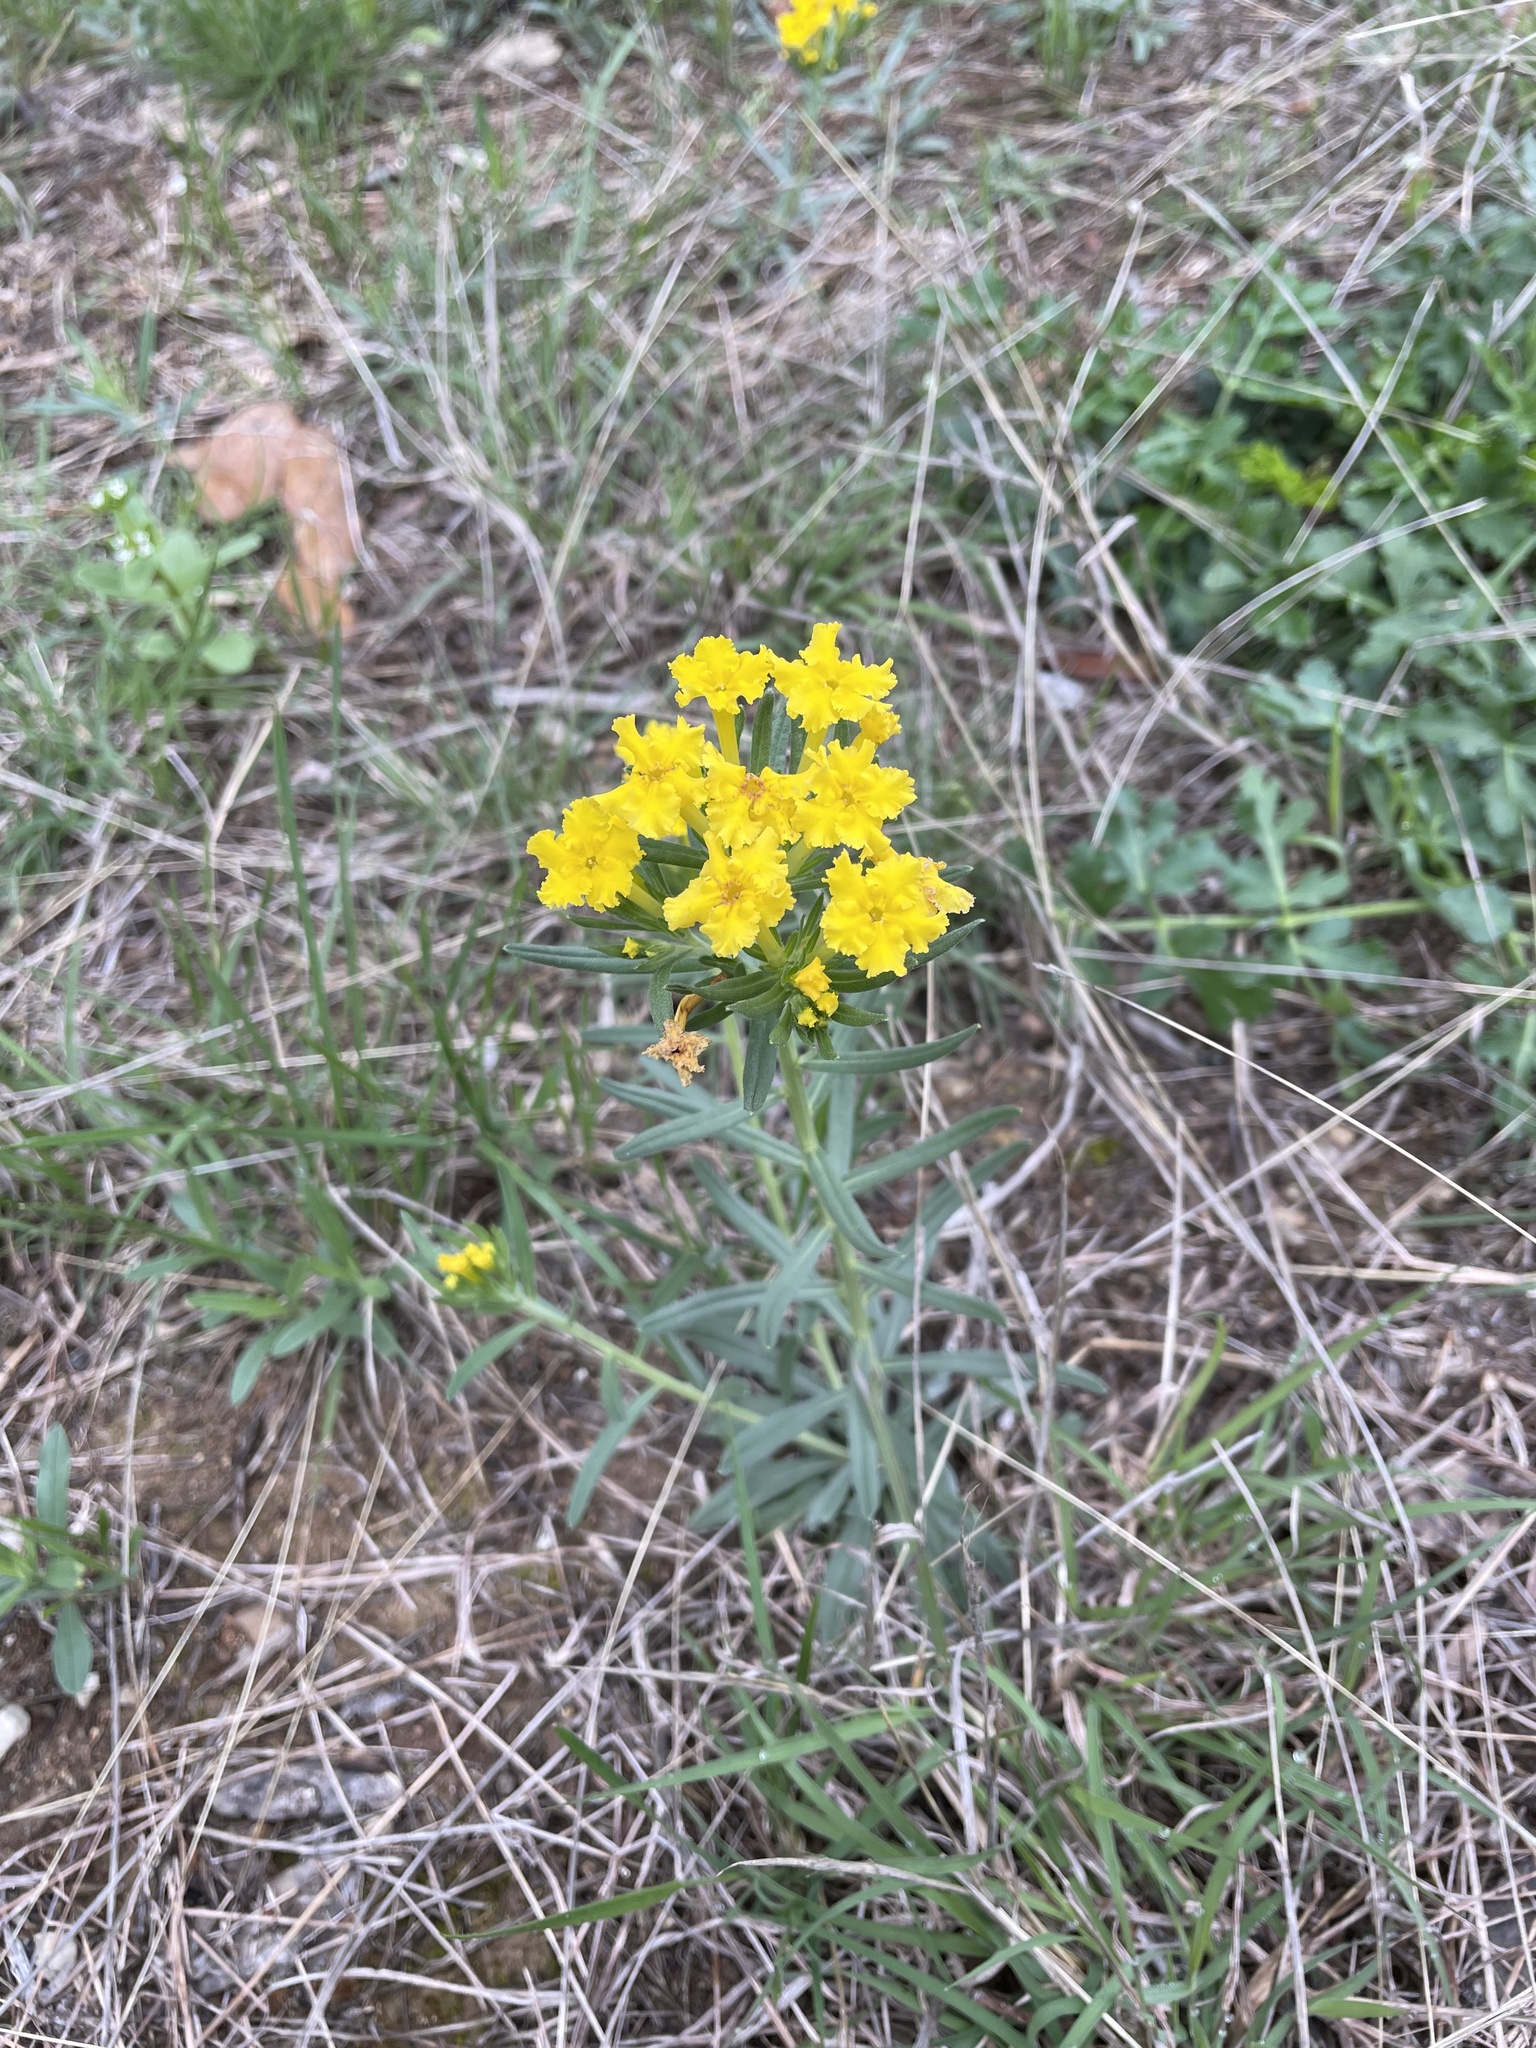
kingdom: Plantae
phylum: Tracheophyta
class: Magnoliopsida
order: Boraginales
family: Boraginaceae
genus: Lithospermum
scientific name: Lithospermum incisum
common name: Fringed gromwell
